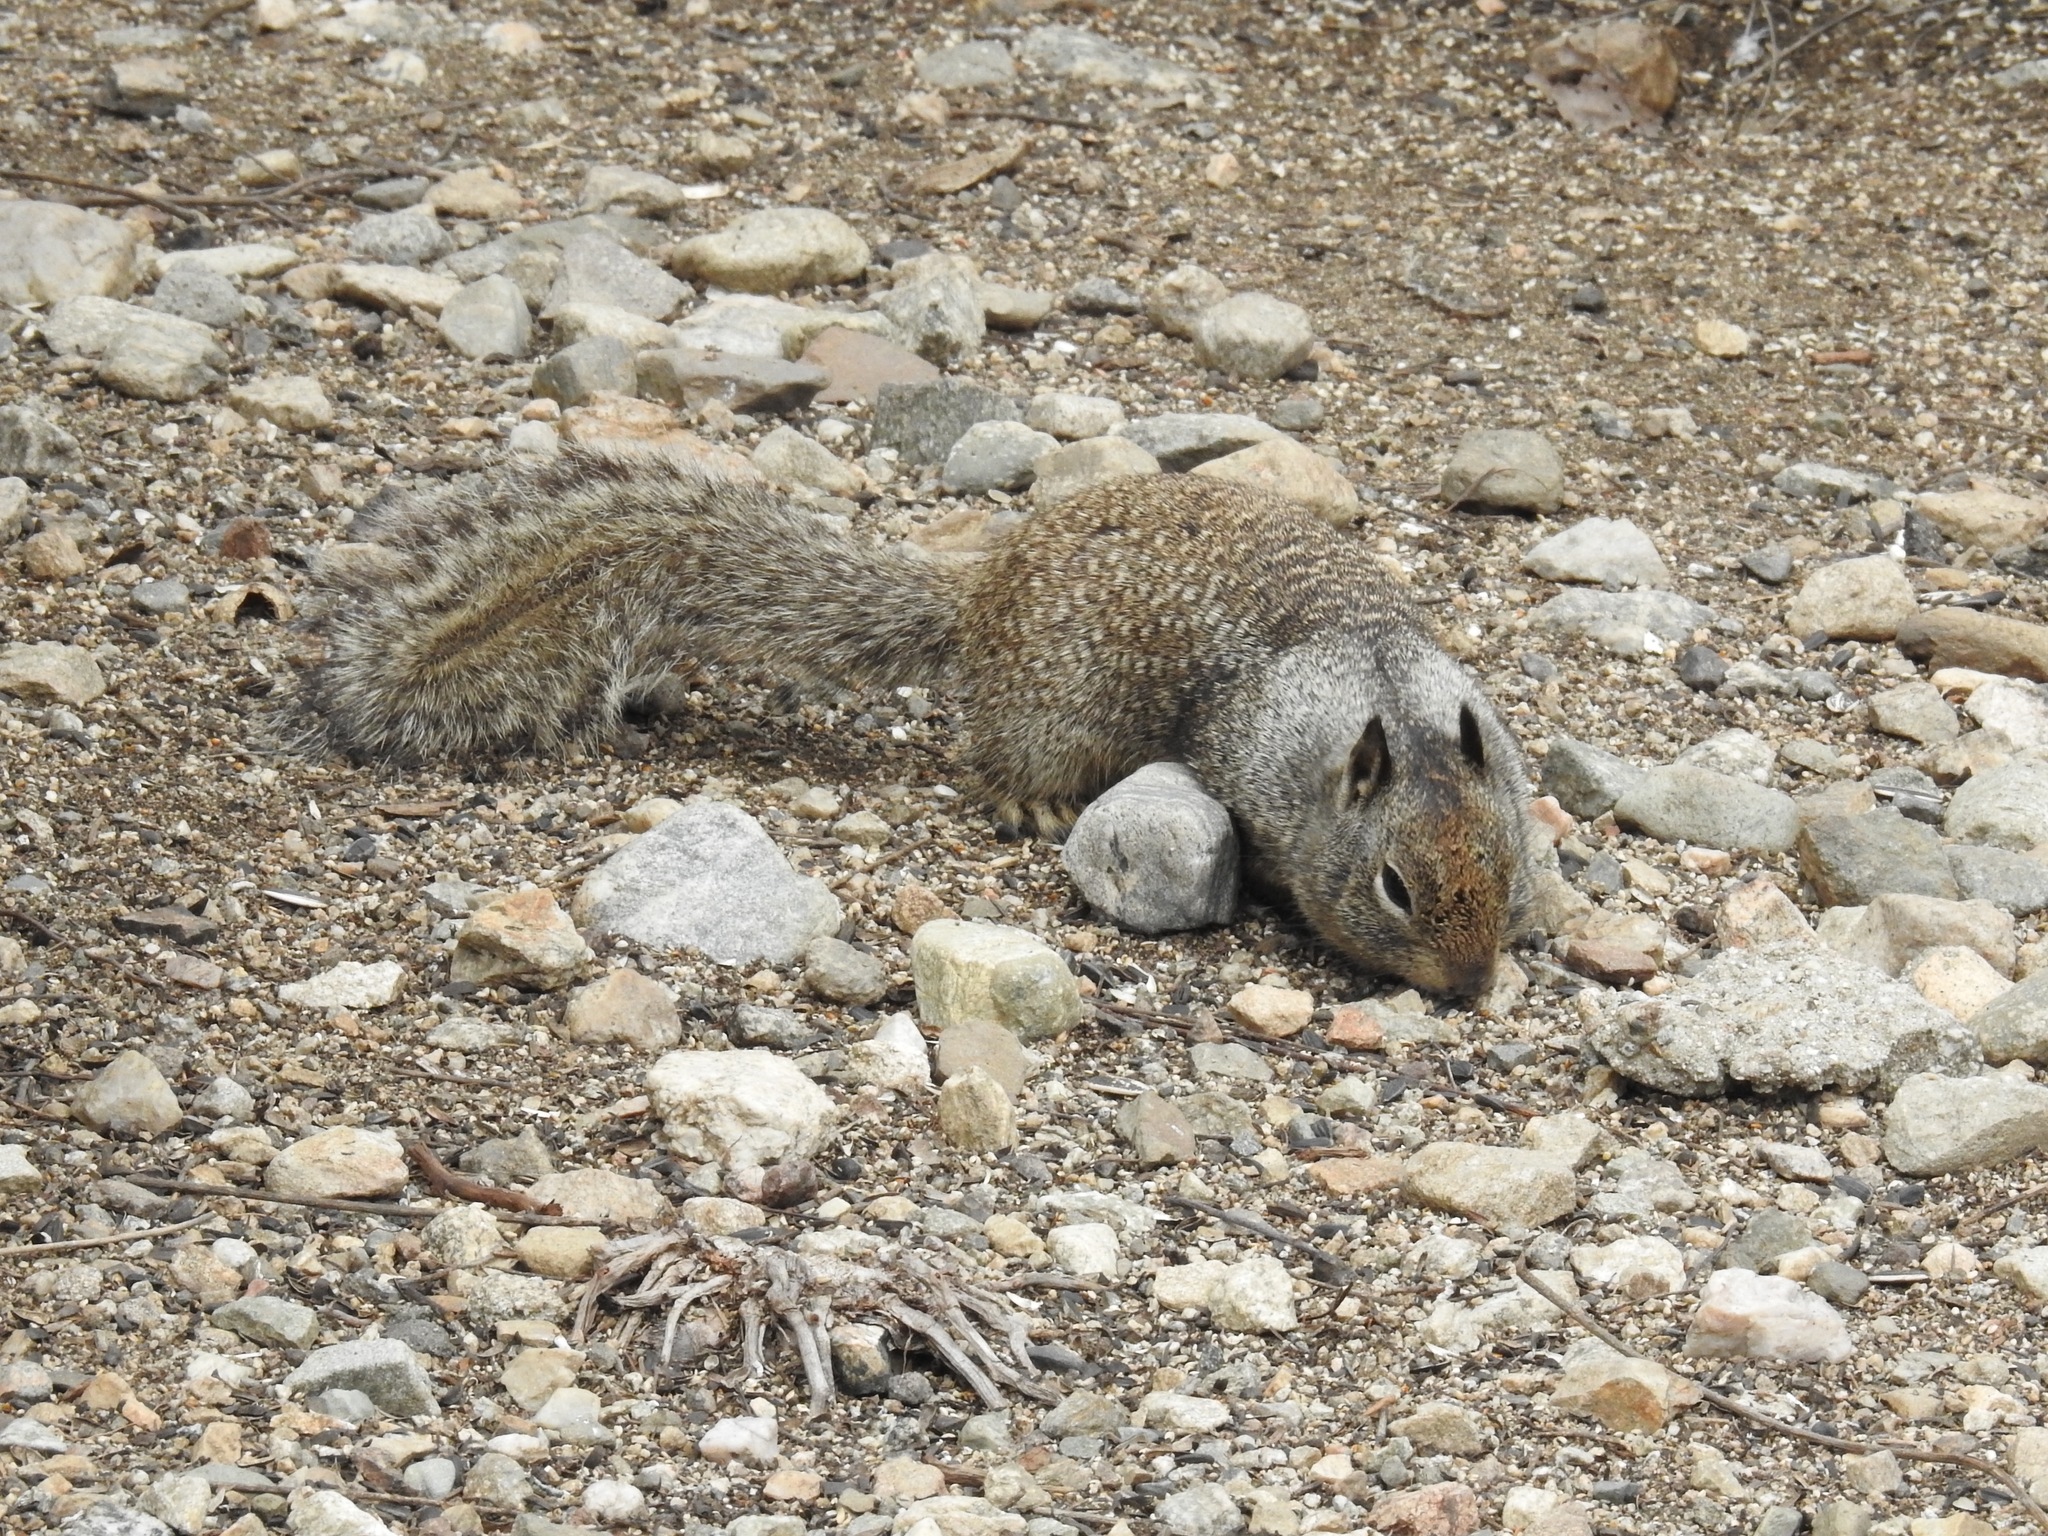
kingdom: Animalia
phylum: Chordata
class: Mammalia
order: Rodentia
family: Sciuridae
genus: Otospermophilus
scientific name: Otospermophilus beecheyi
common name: California ground squirrel
